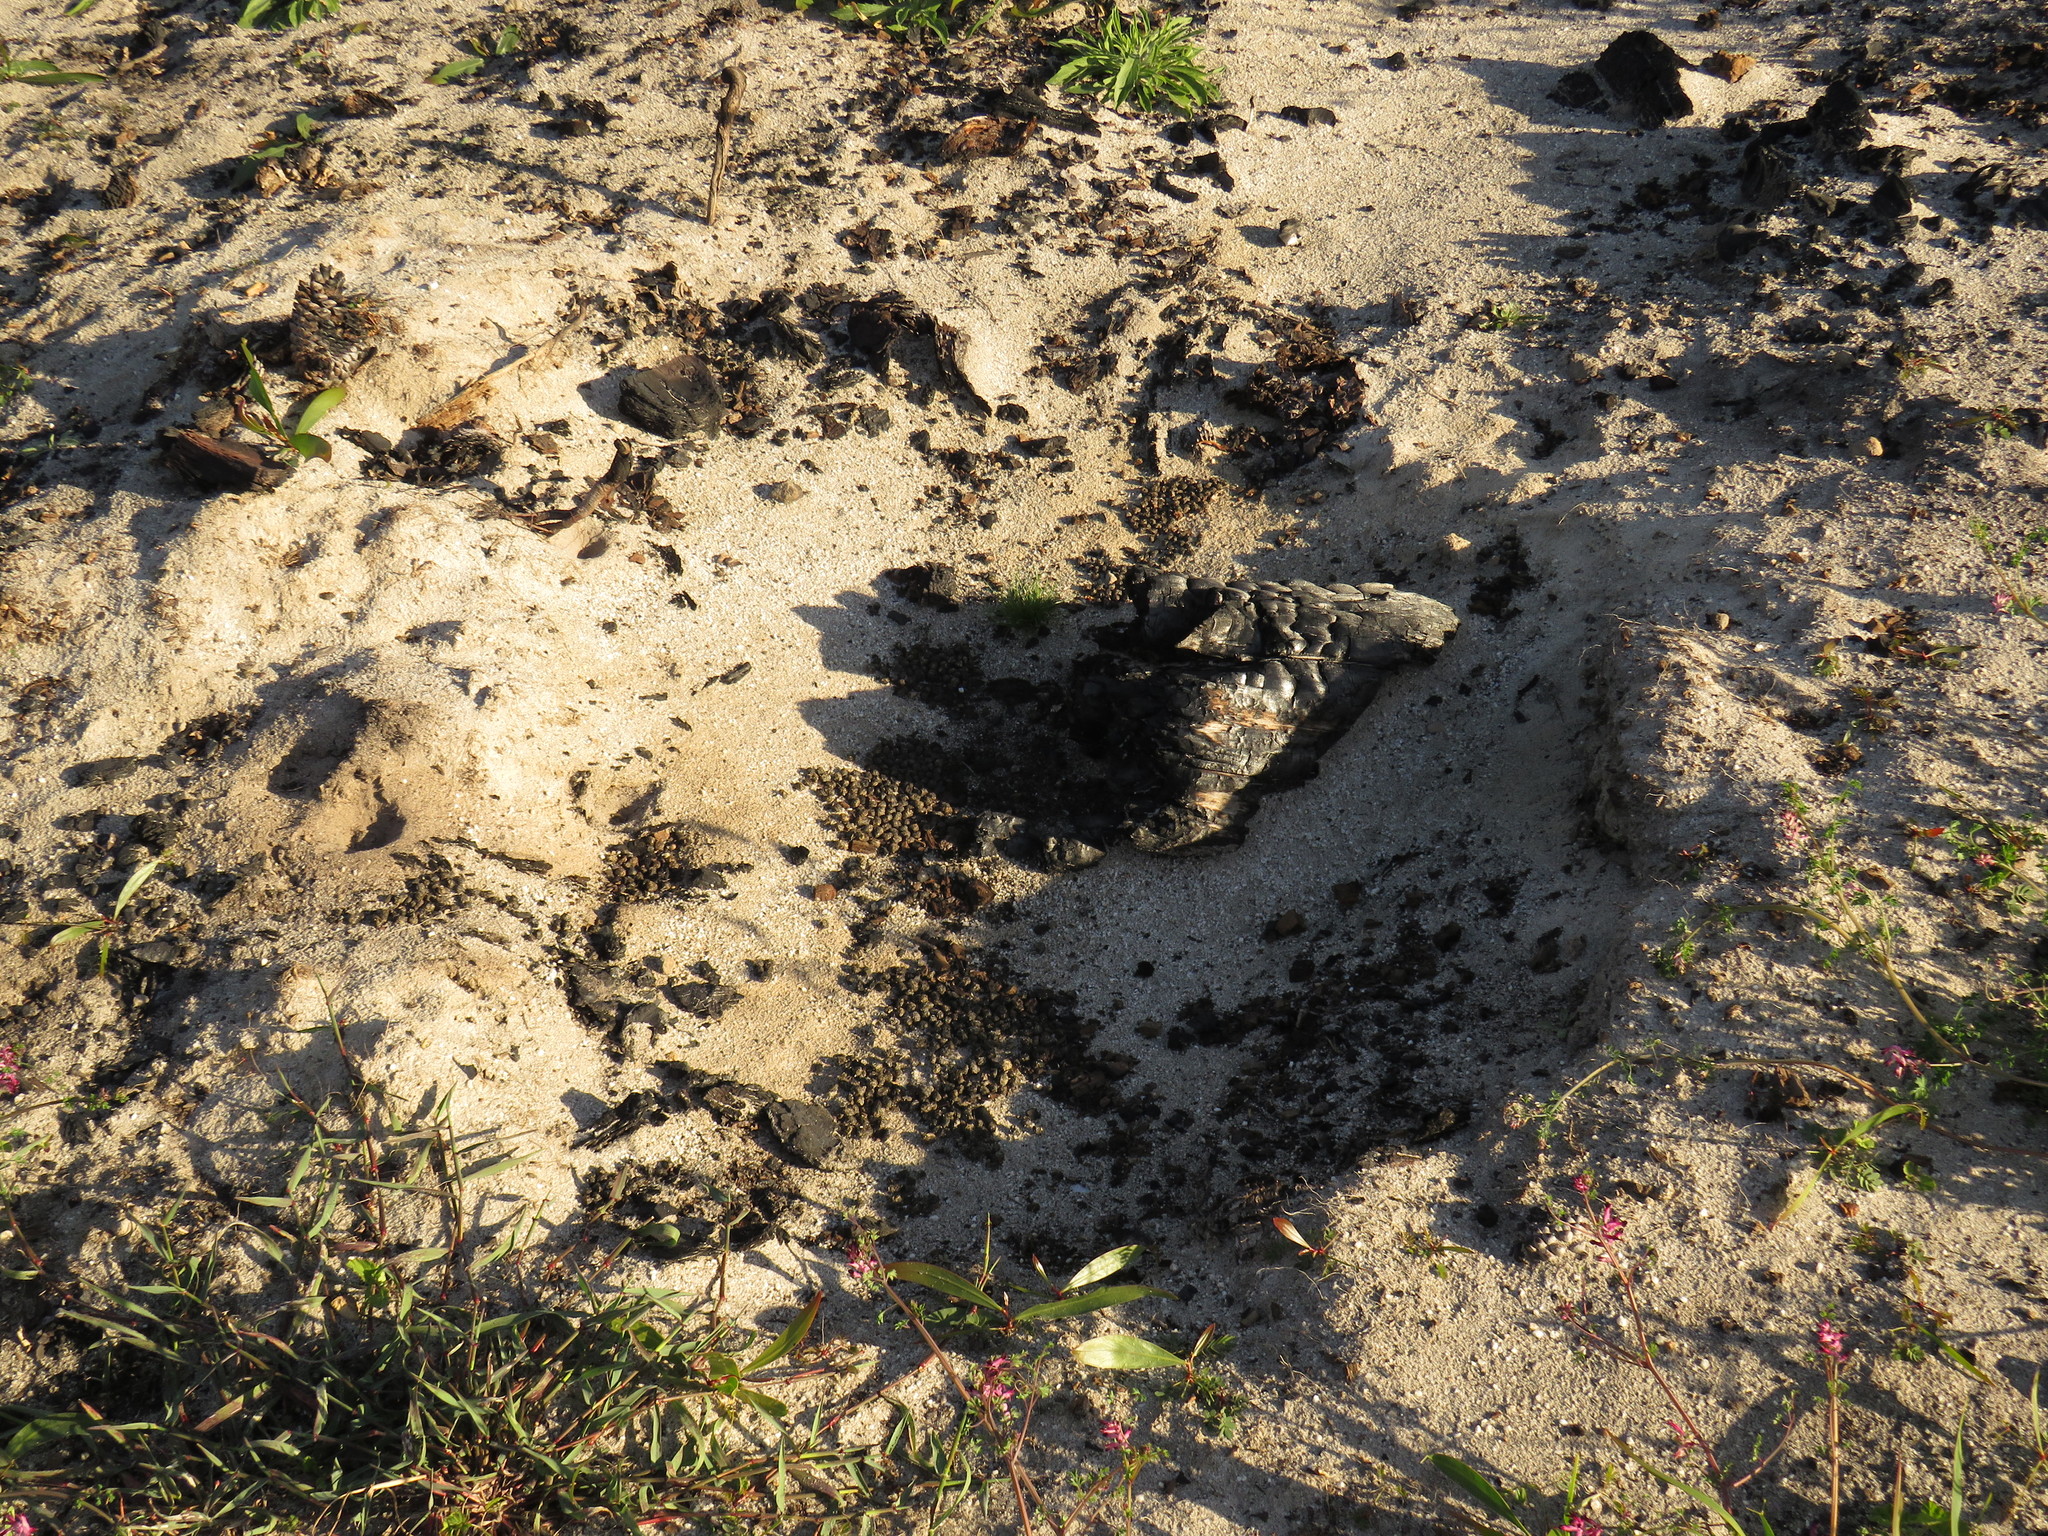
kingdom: Animalia
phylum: Chordata
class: Mammalia
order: Lagomorpha
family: Leporidae
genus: Oryctolagus
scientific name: Oryctolagus cuniculus
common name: European rabbit
